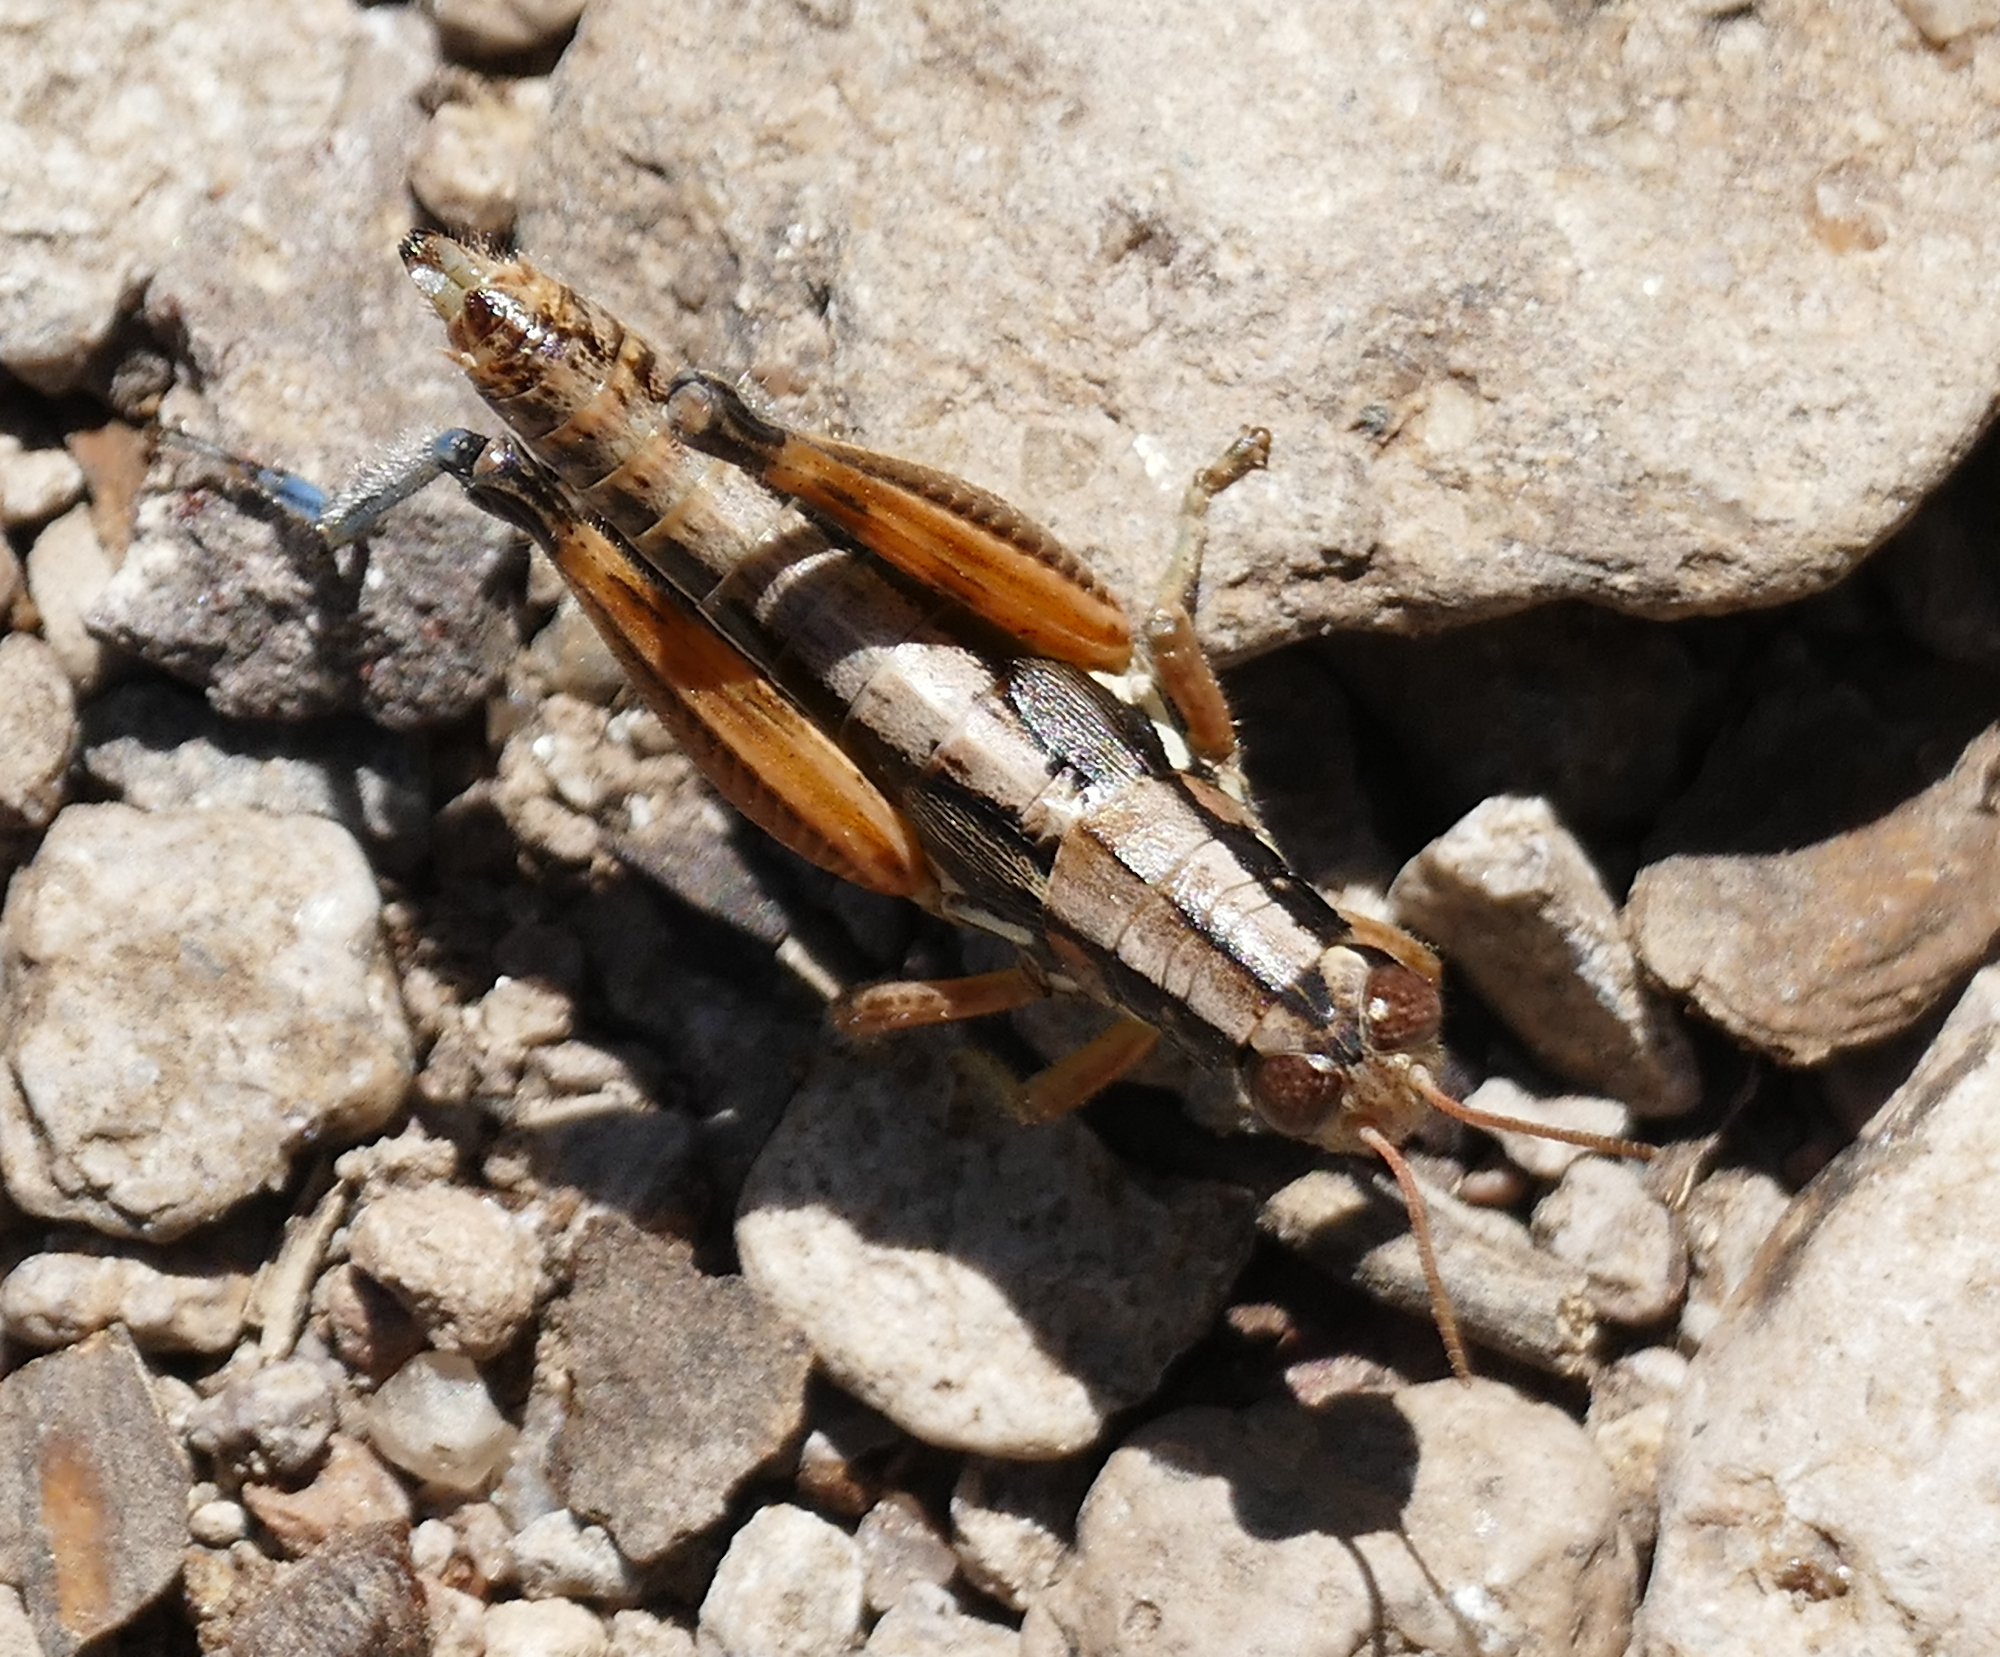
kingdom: Animalia
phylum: Arthropoda
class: Insecta
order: Orthoptera
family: Acrididae
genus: Melanoplus
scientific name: Melanoplus mogollona
